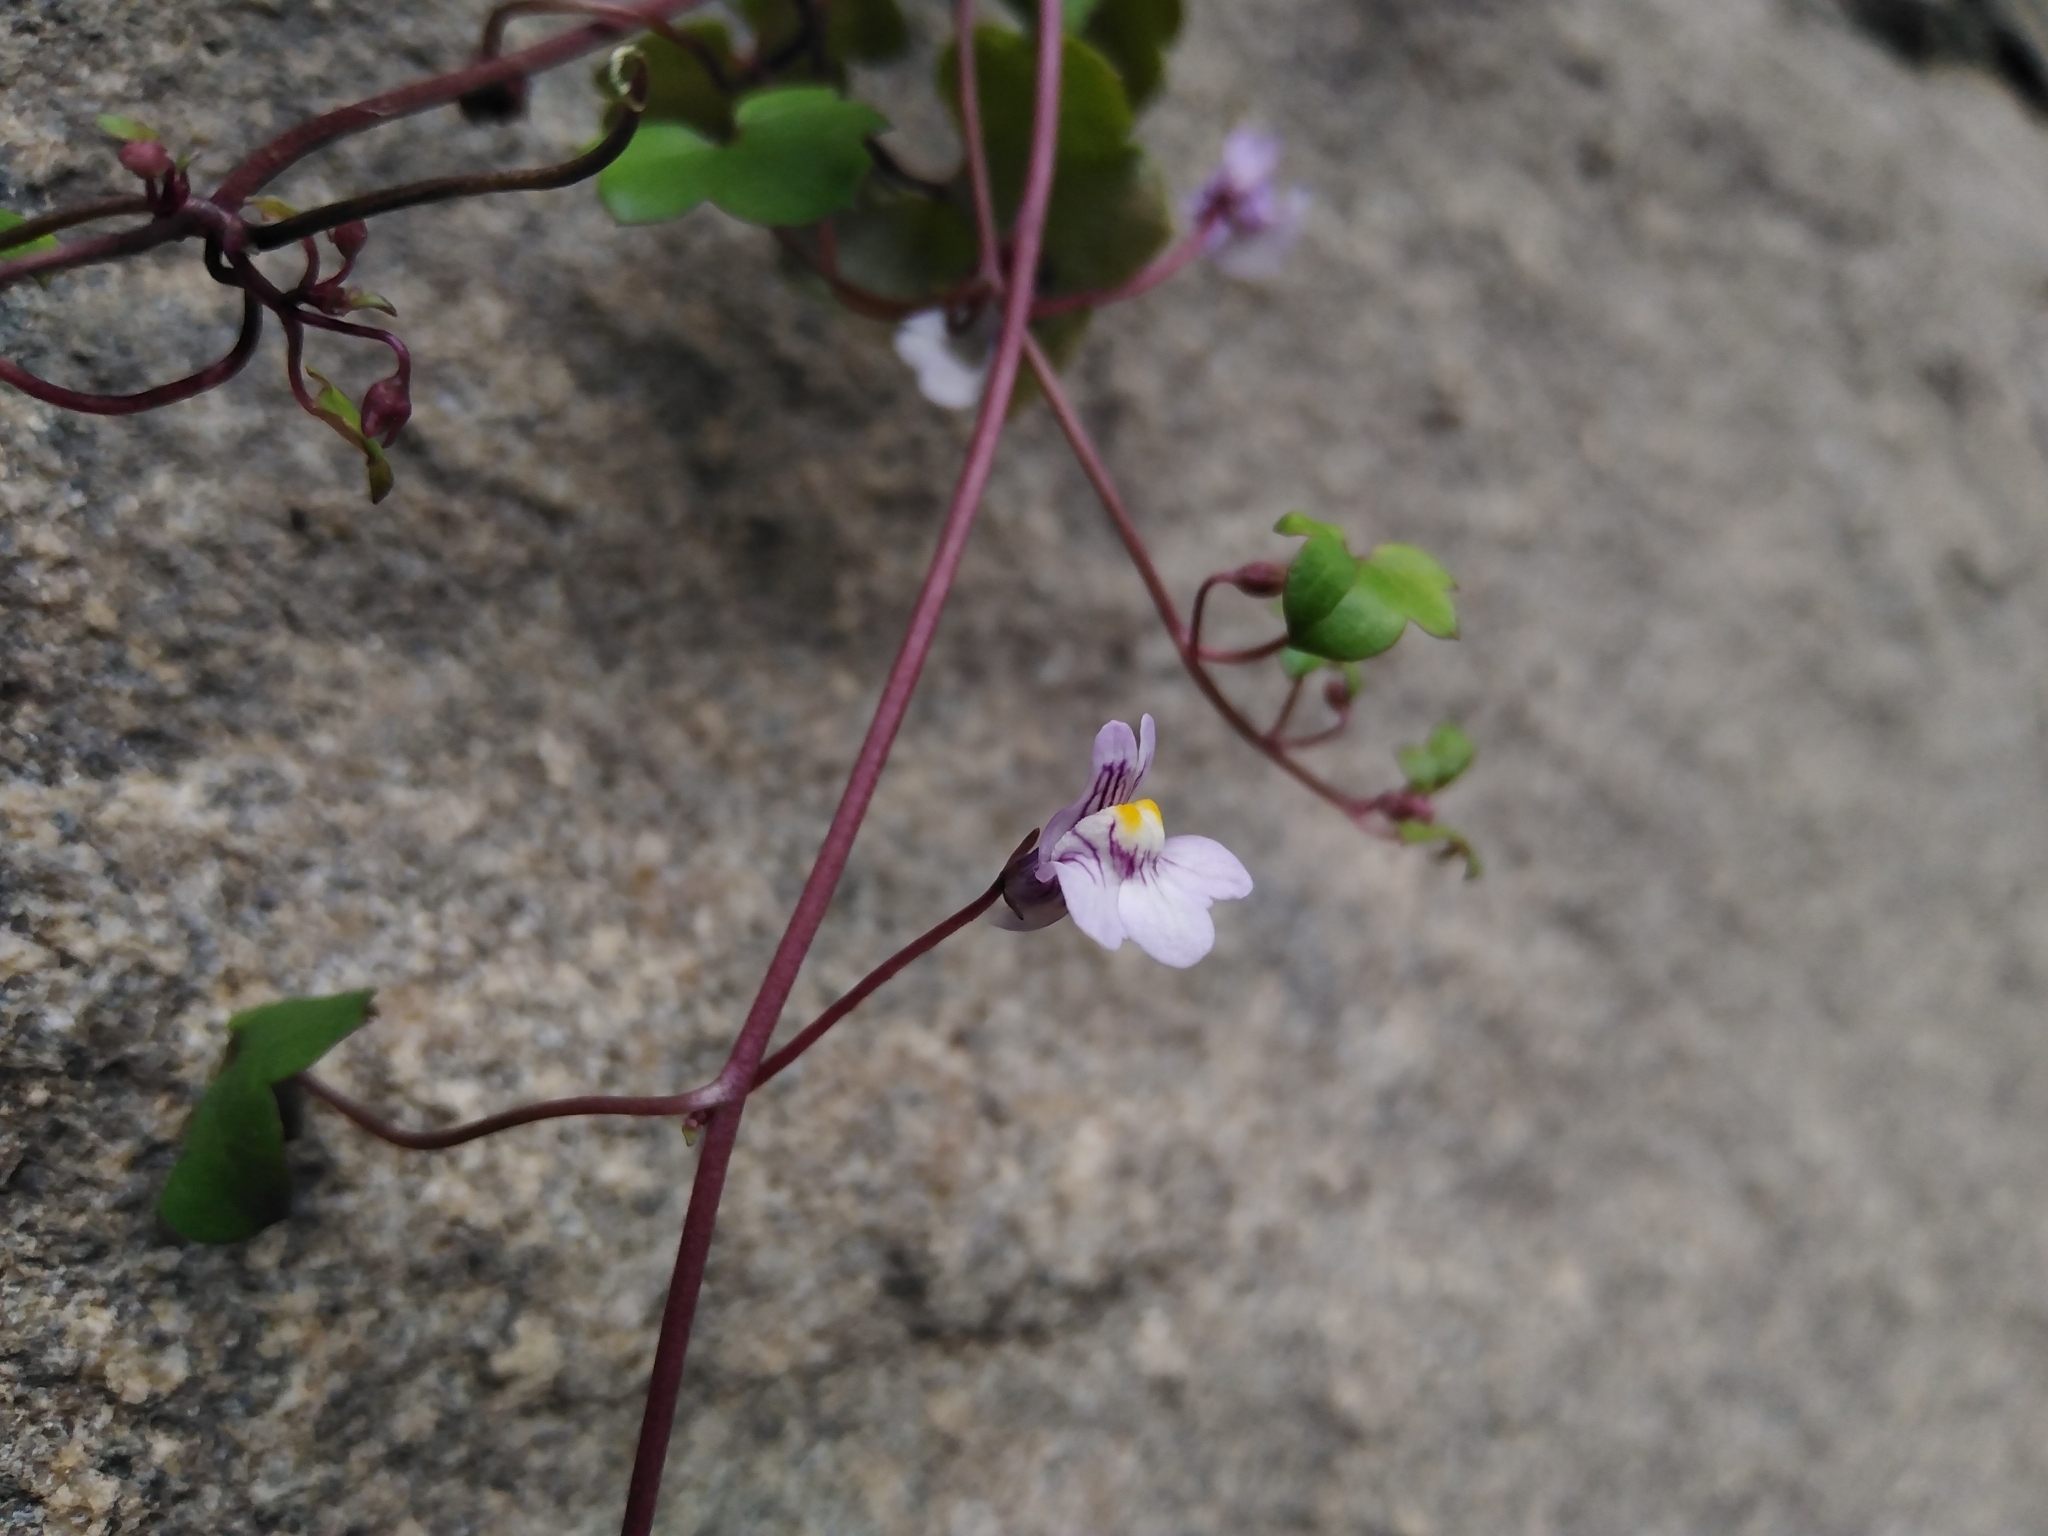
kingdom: Plantae
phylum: Tracheophyta
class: Magnoliopsida
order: Lamiales
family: Plantaginaceae
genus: Cymbalaria
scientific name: Cymbalaria muralis
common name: Ivy-leaved toadflax
